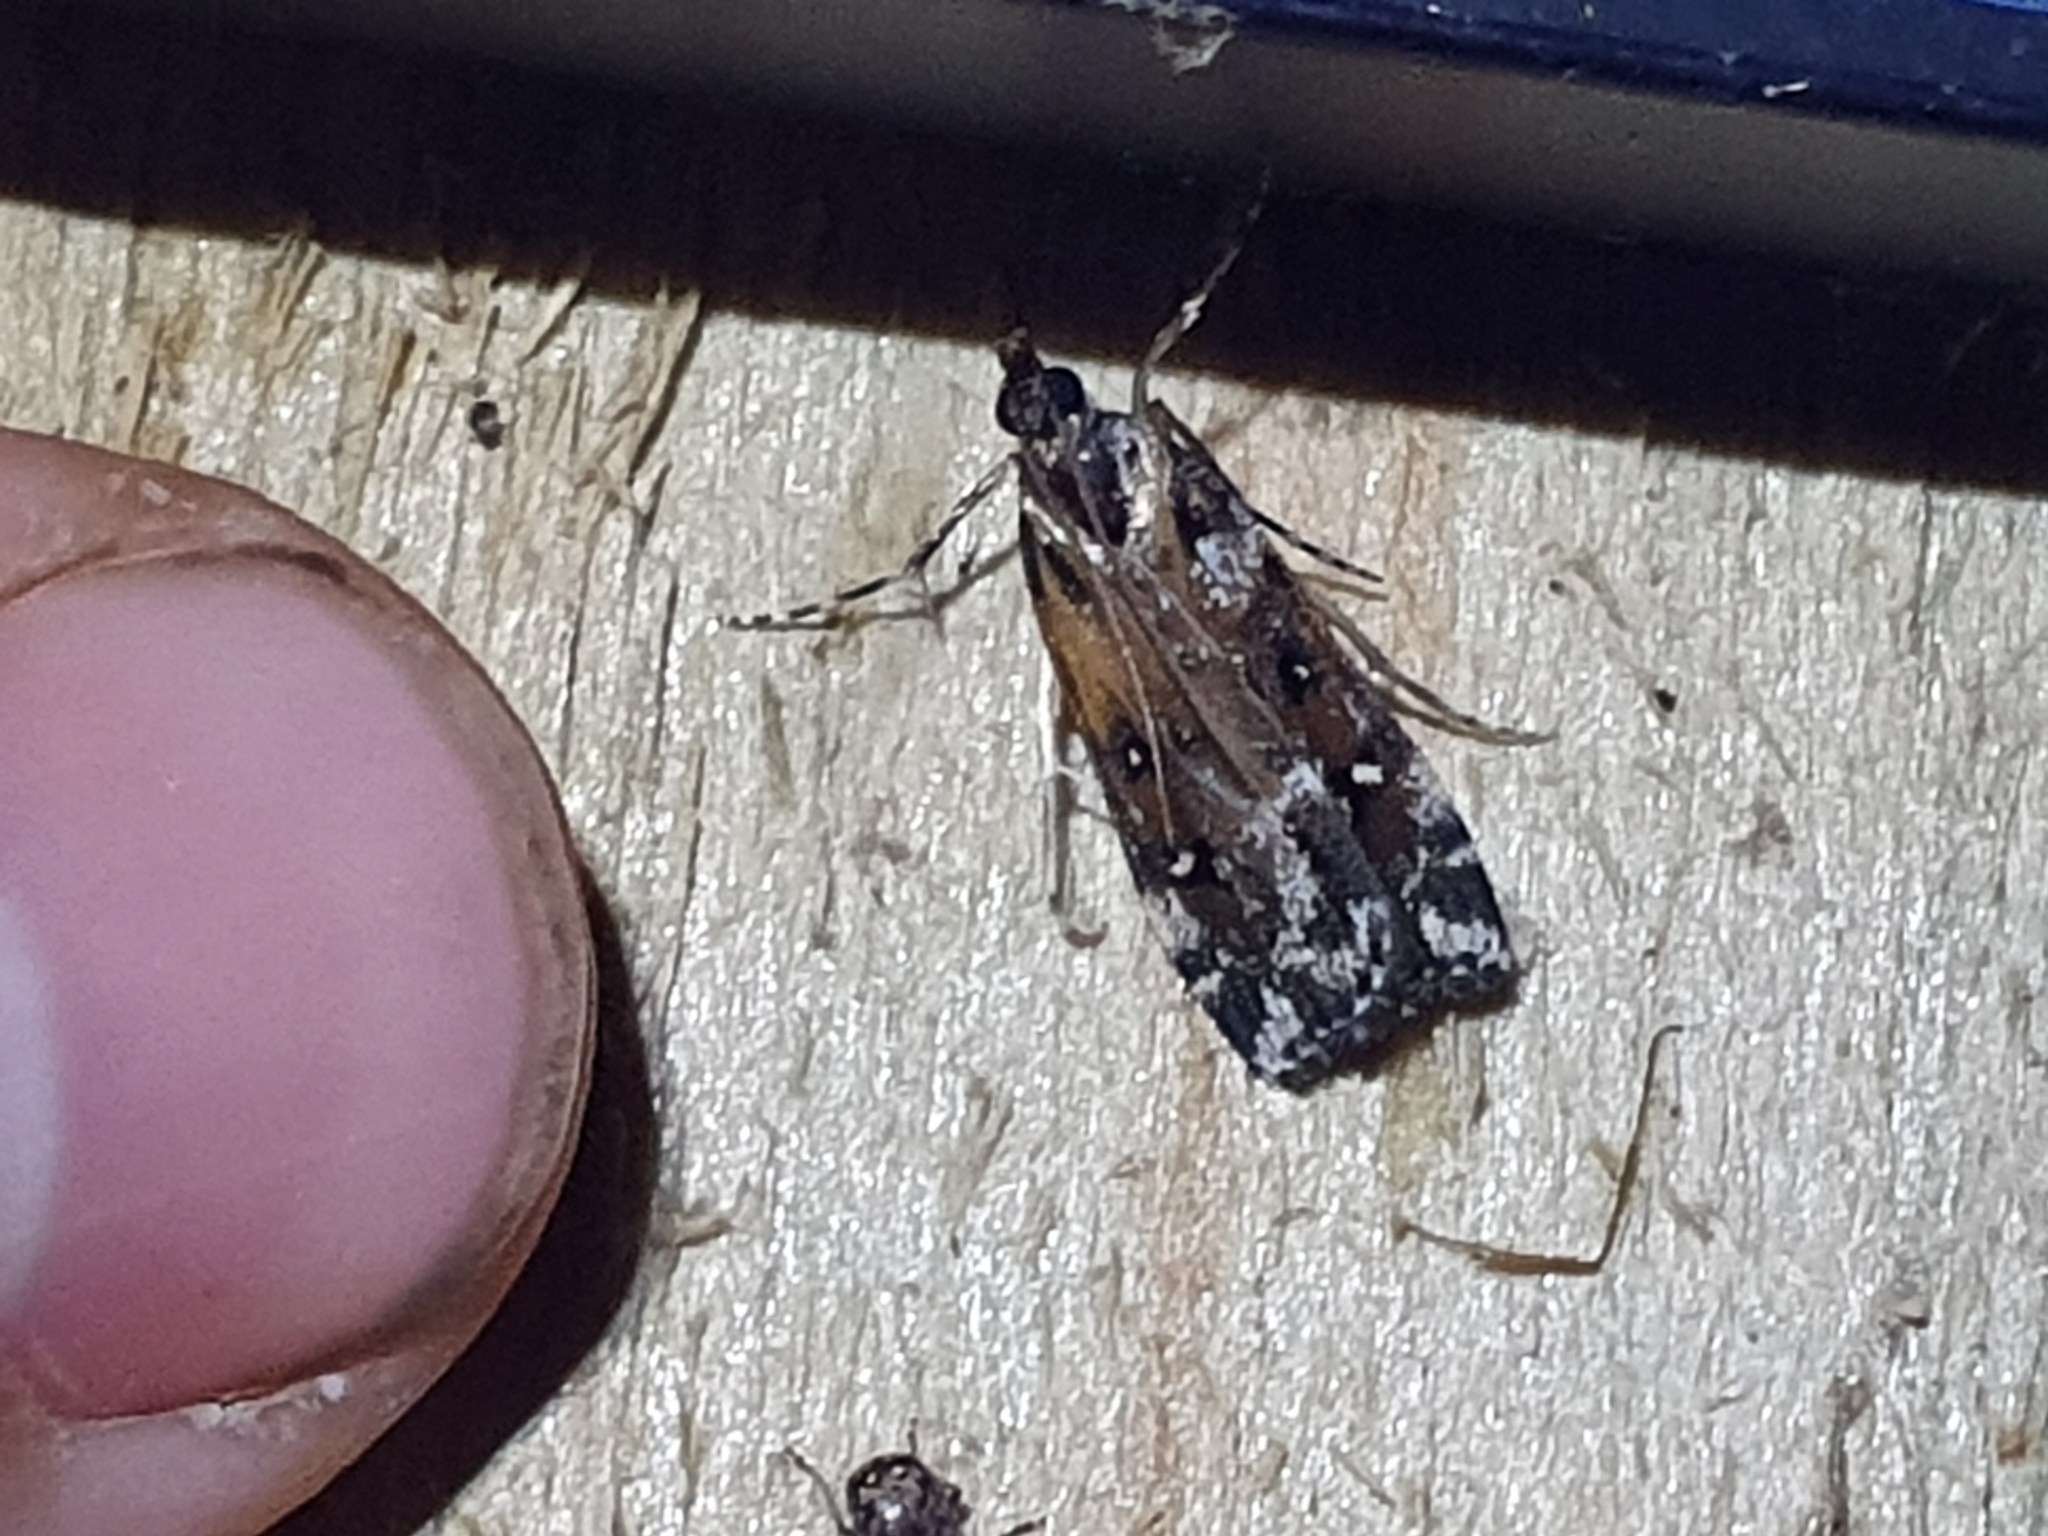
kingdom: Animalia
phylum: Arthropoda
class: Insecta
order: Lepidoptera
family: Crambidae
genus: Eudonia
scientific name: Eudonia diphtheralis
